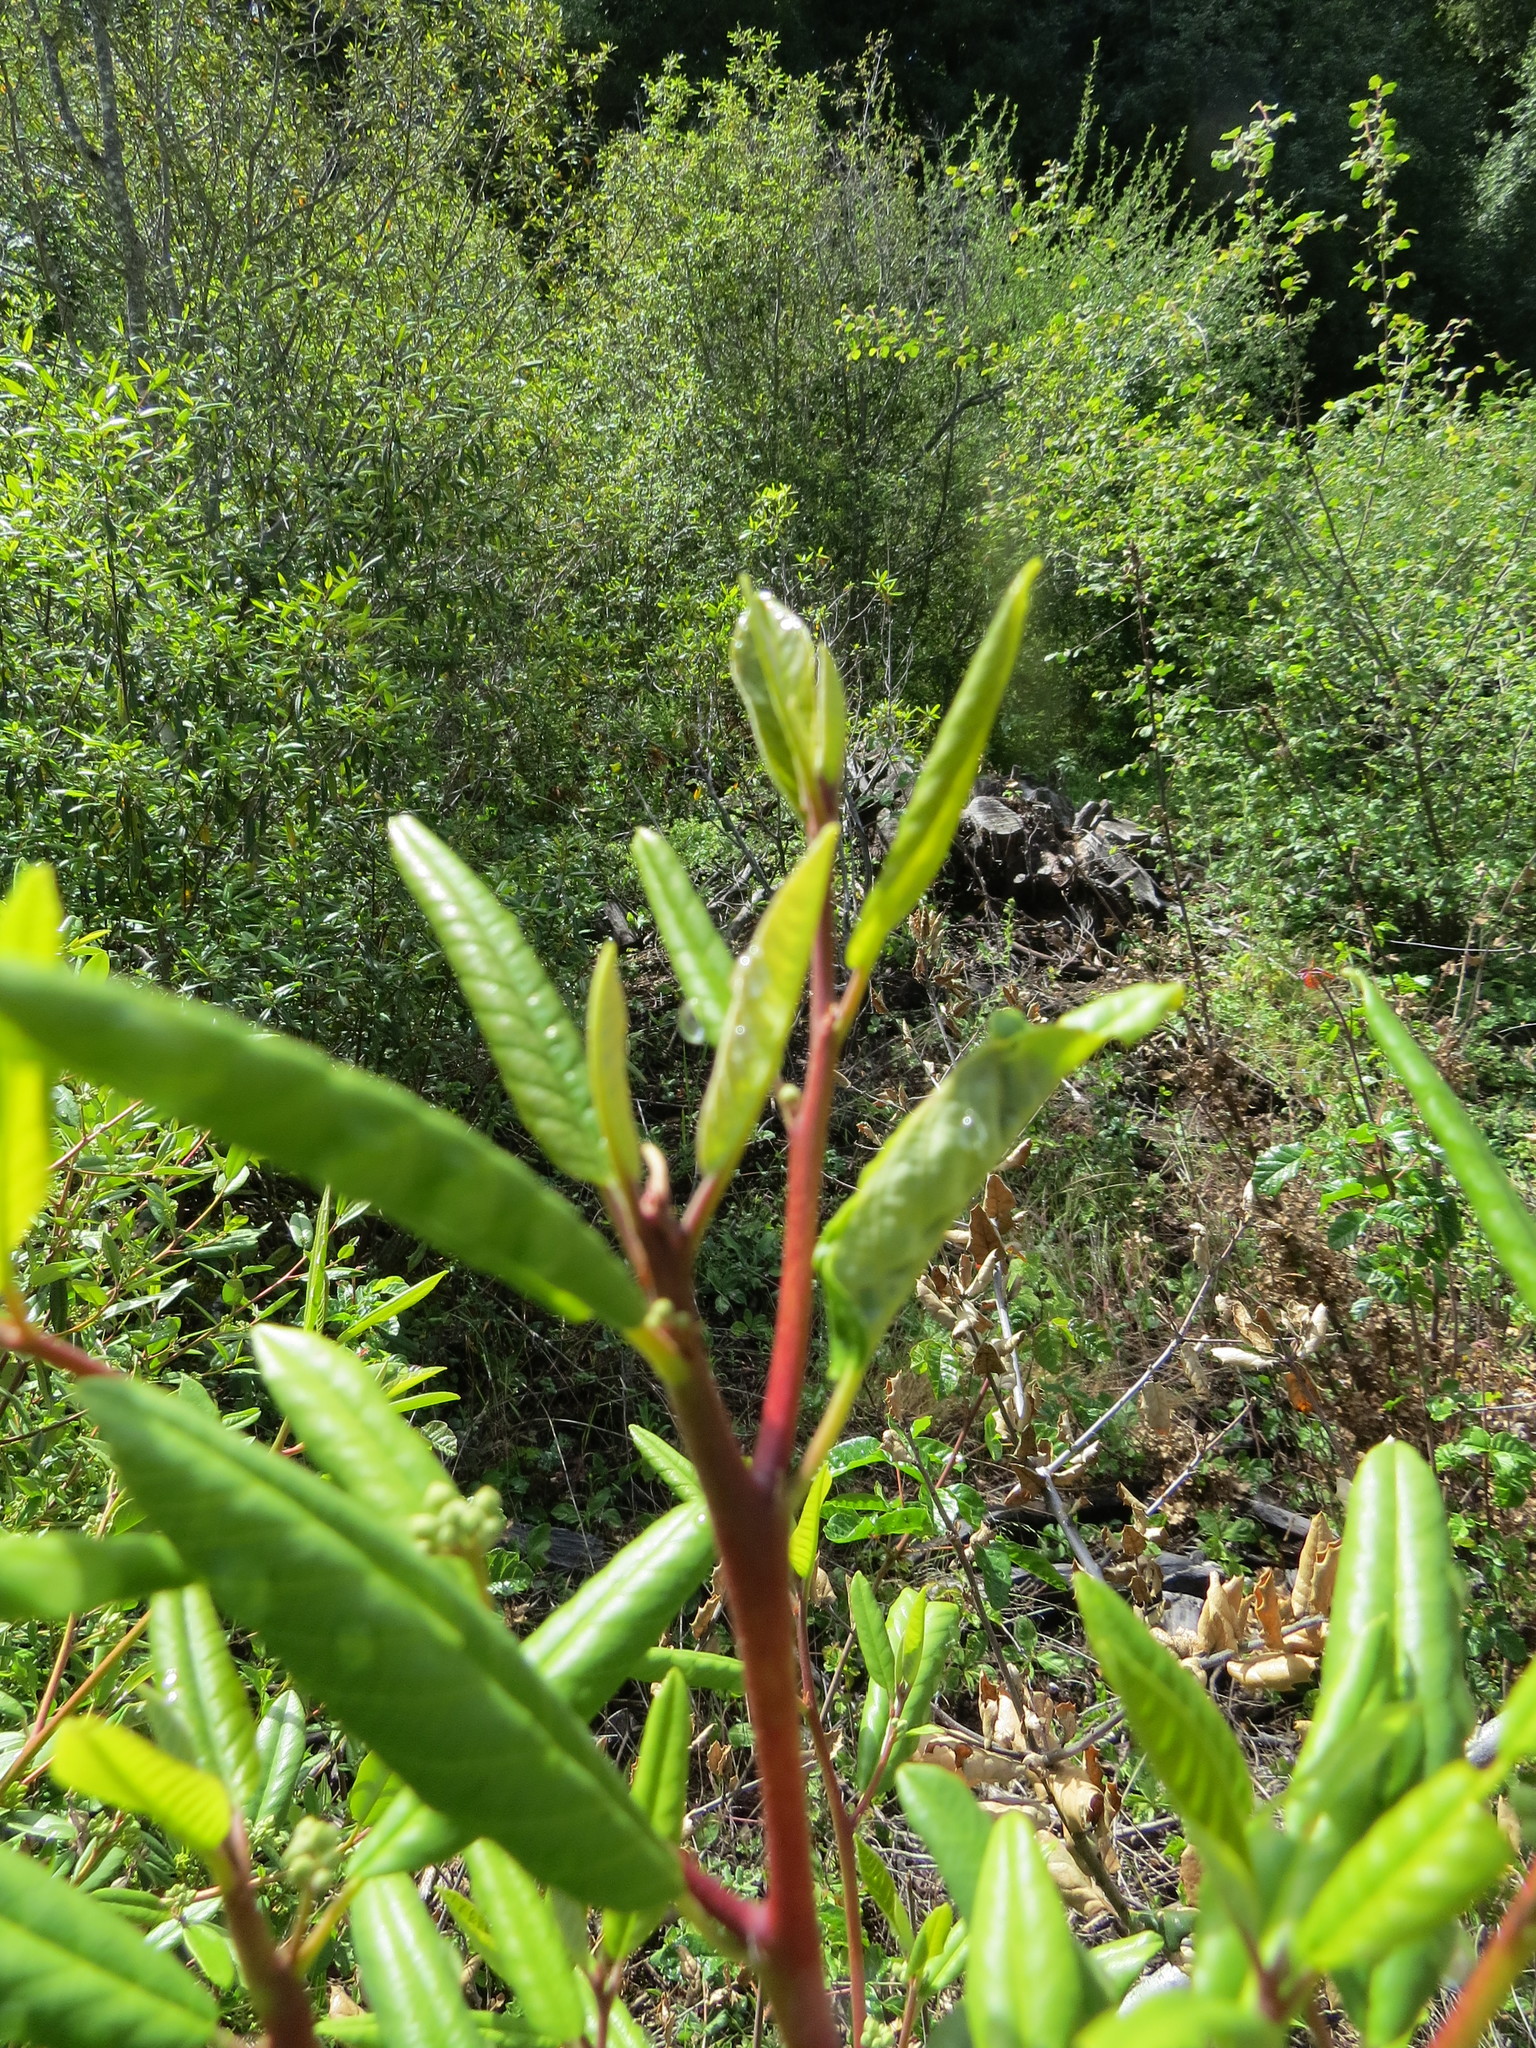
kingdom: Plantae
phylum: Tracheophyta
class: Magnoliopsida
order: Rosales
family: Rhamnaceae
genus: Frangula
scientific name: Frangula californica
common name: California buckthorn
